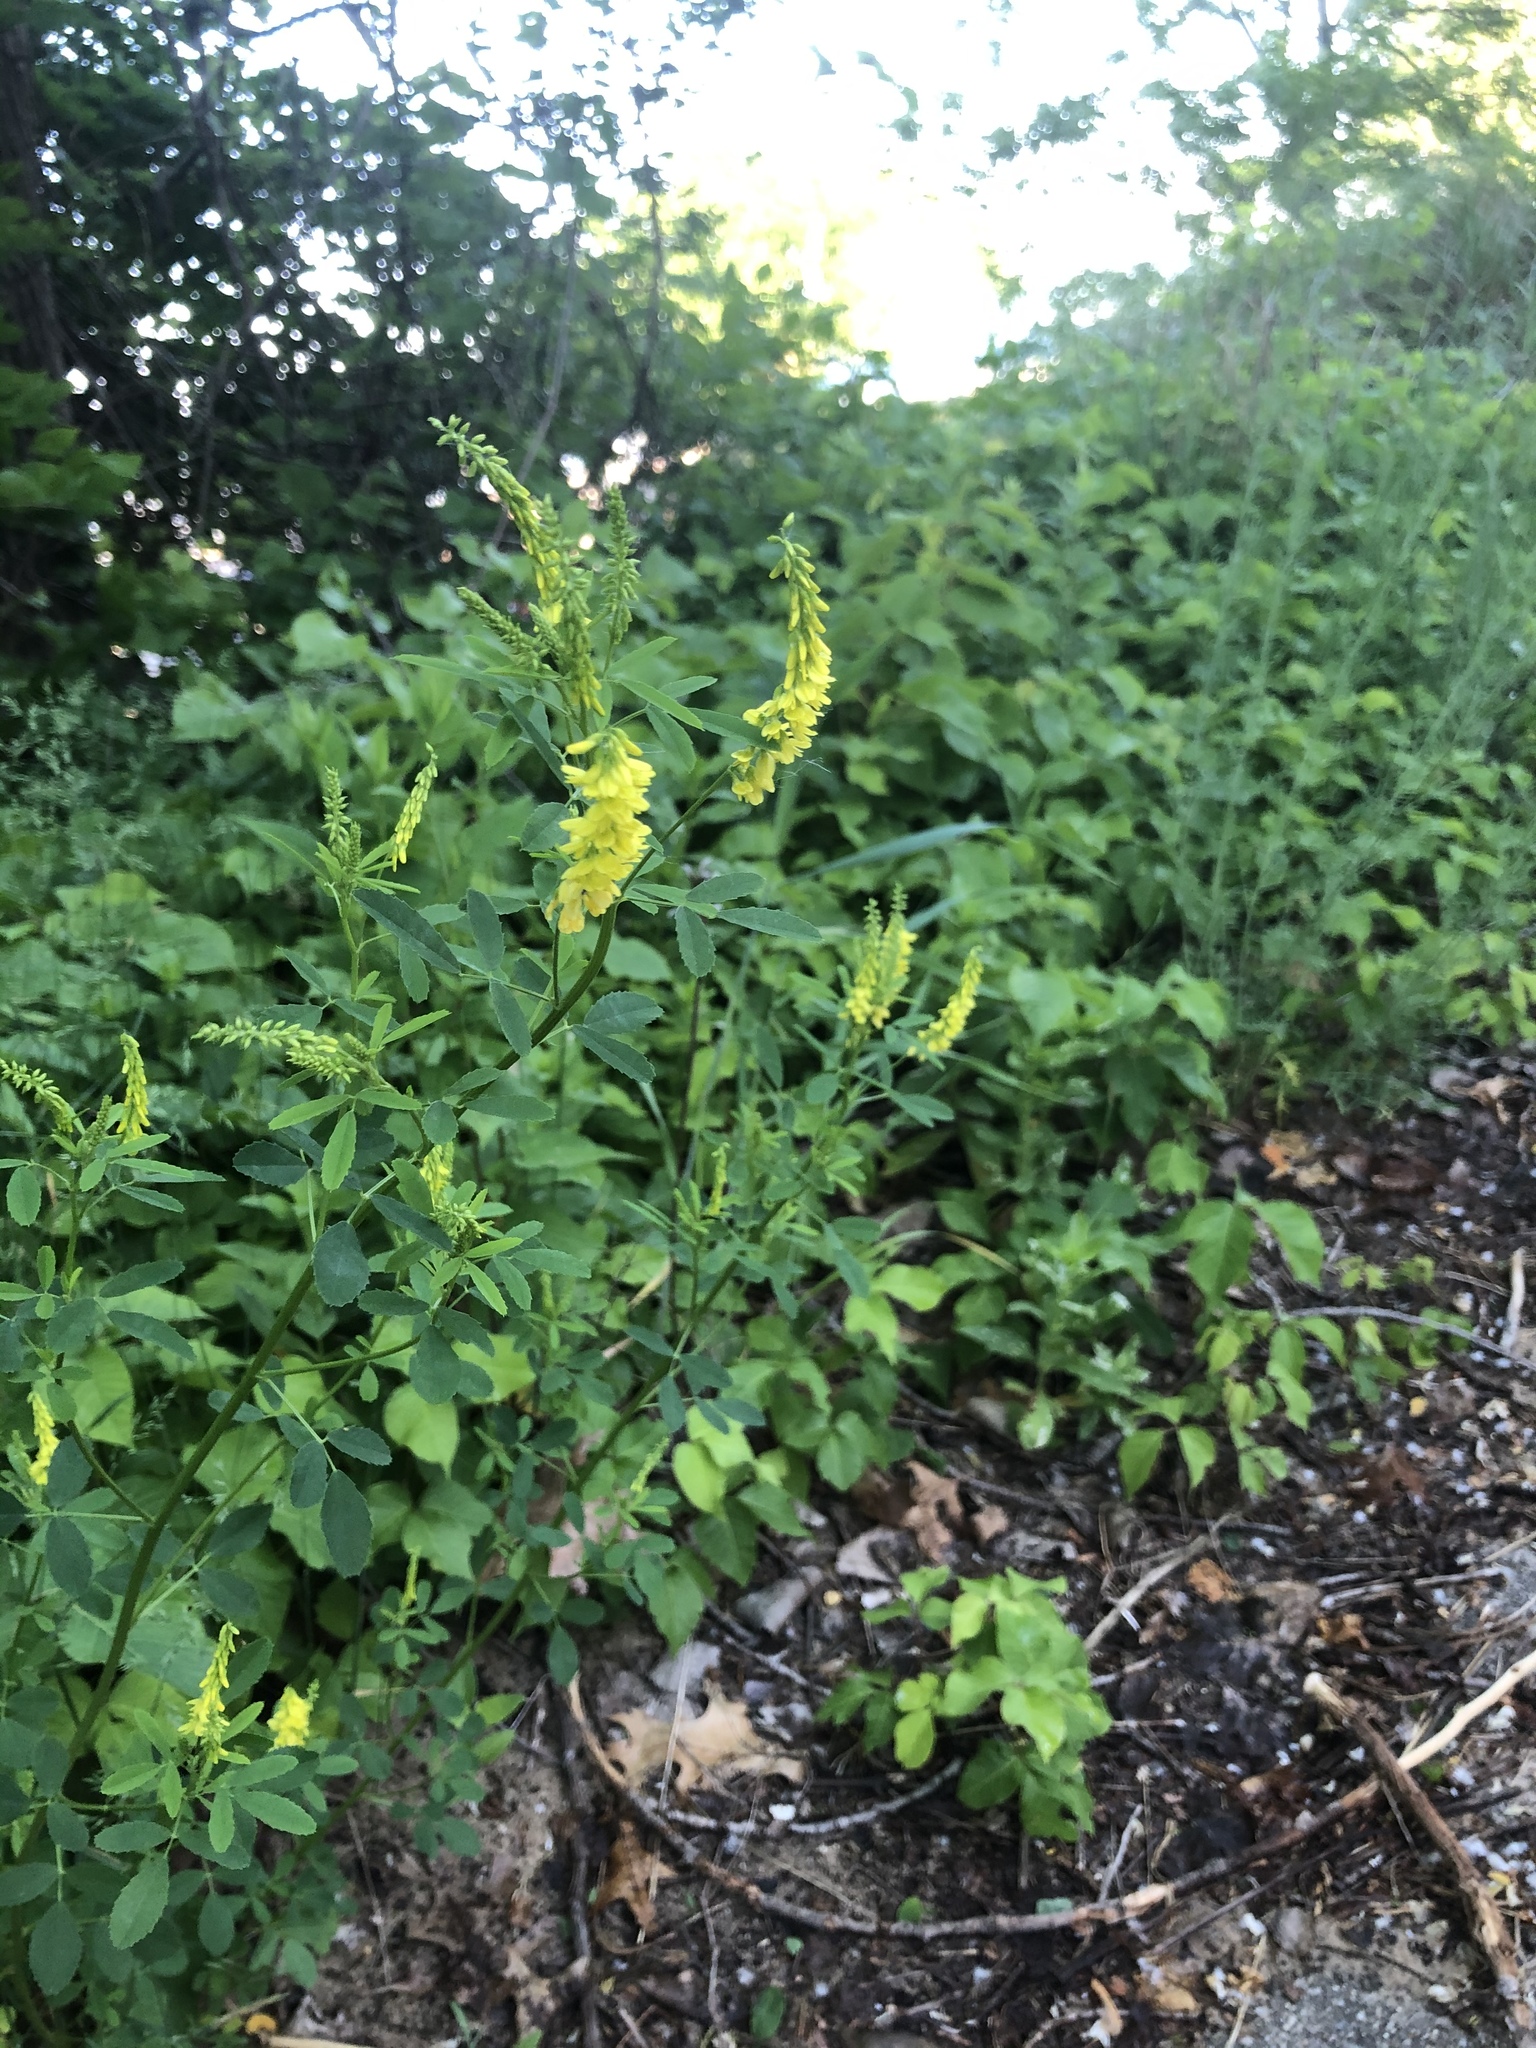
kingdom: Plantae
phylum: Tracheophyta
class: Magnoliopsida
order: Fabales
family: Fabaceae
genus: Melilotus
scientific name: Melilotus officinalis
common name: Sweetclover
